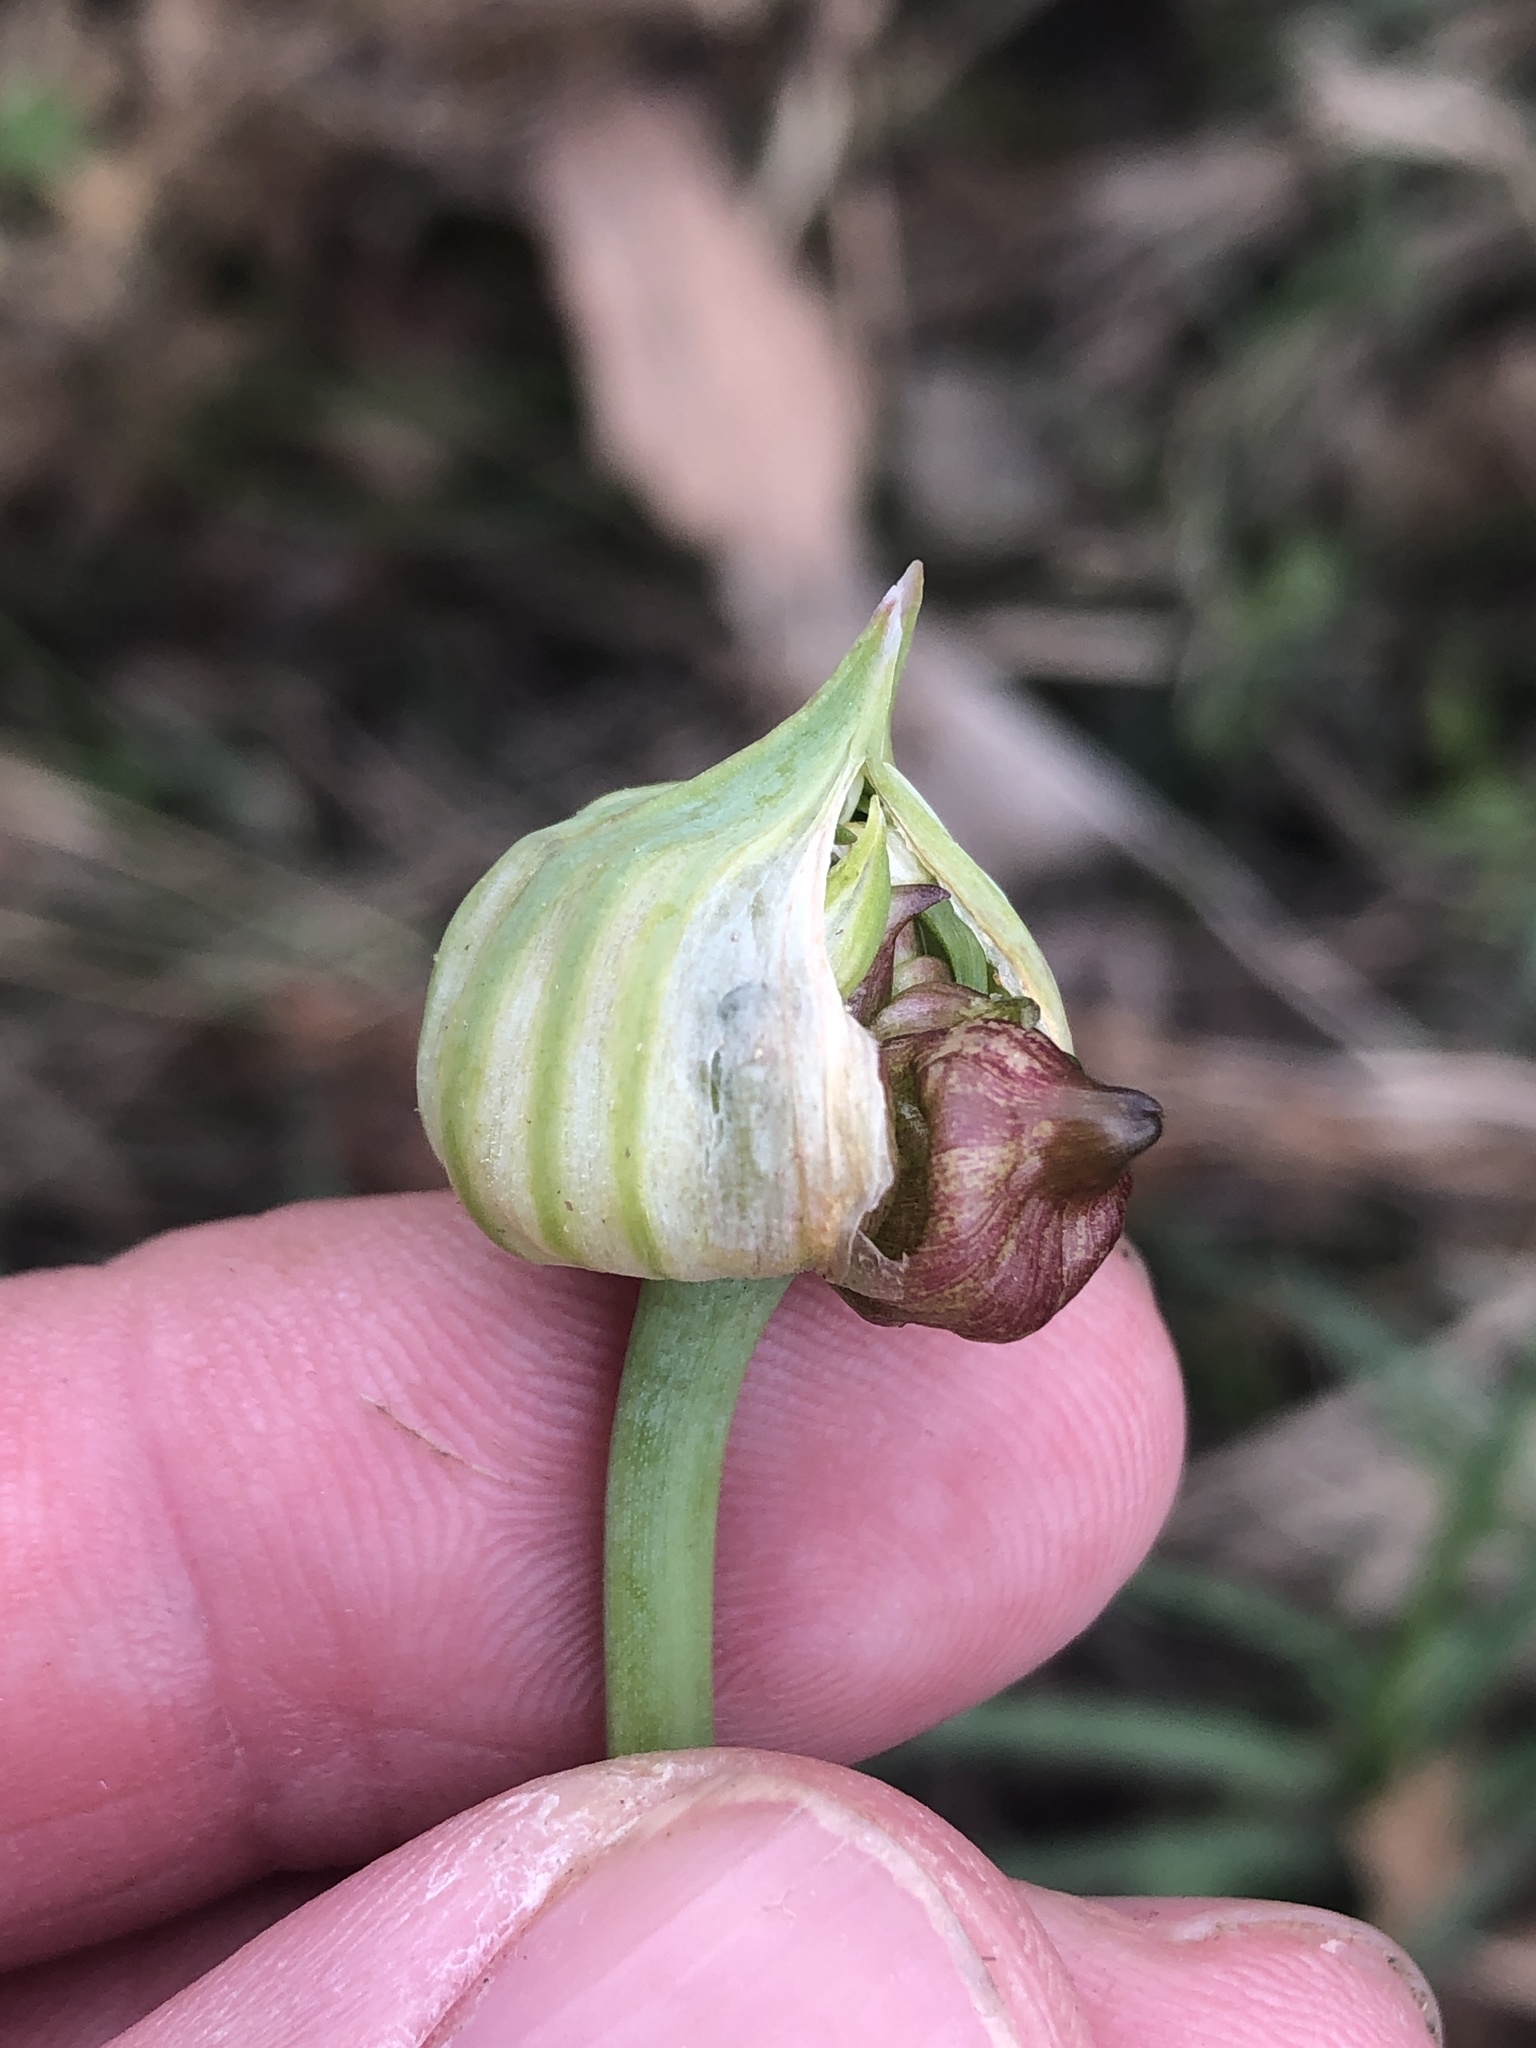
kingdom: Plantae
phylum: Tracheophyta
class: Liliopsida
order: Asparagales
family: Amaryllidaceae
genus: Allium
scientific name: Allium canadense
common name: Meadow garlic
